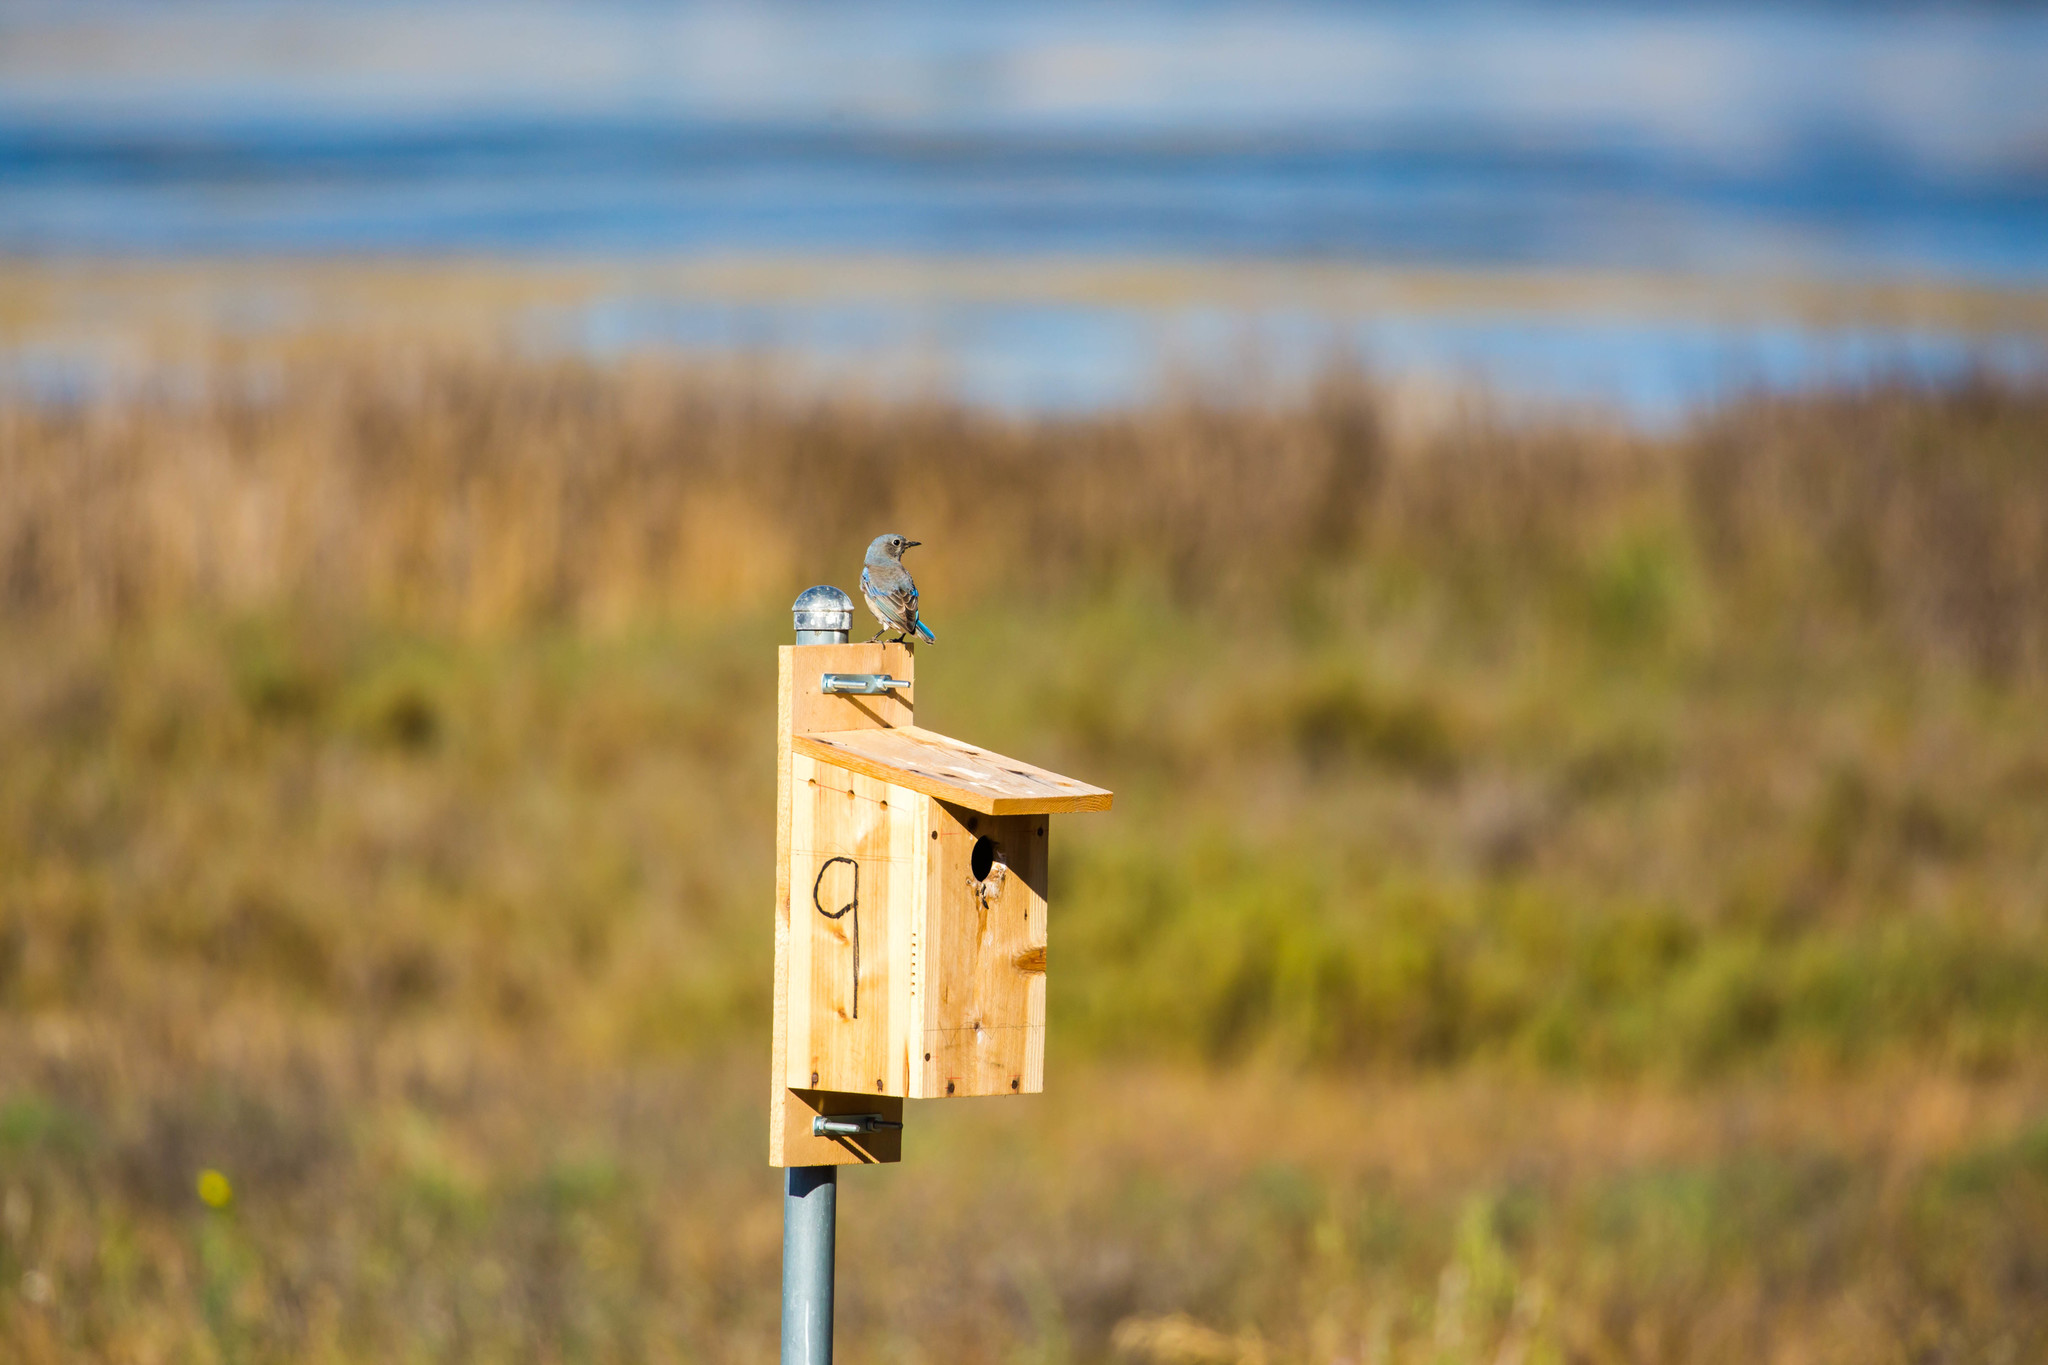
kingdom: Animalia
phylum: Chordata
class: Aves
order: Passeriformes
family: Turdidae
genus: Sialia
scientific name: Sialia mexicana
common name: Western bluebird
